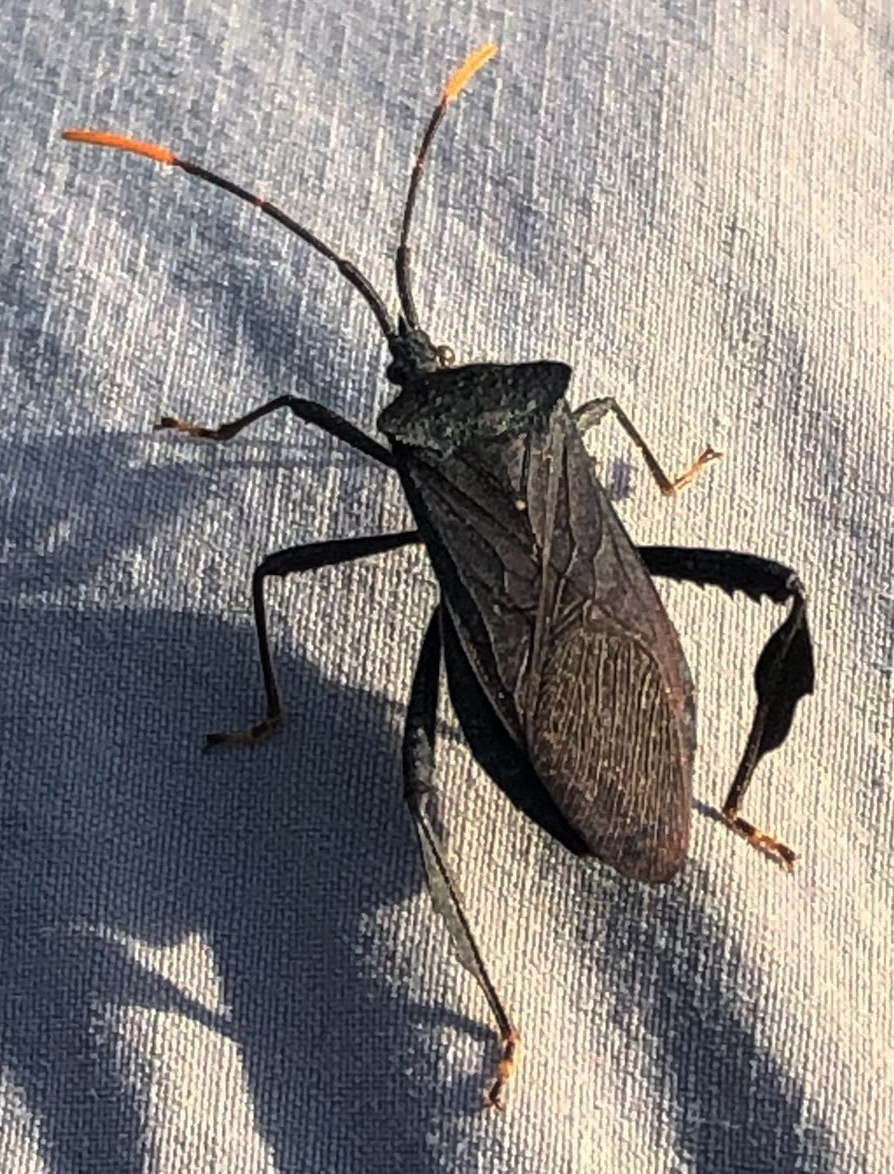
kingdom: Animalia
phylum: Arthropoda
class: Insecta
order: Hemiptera
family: Coreidae
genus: Acanthocephala
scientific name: Acanthocephala terminalis
